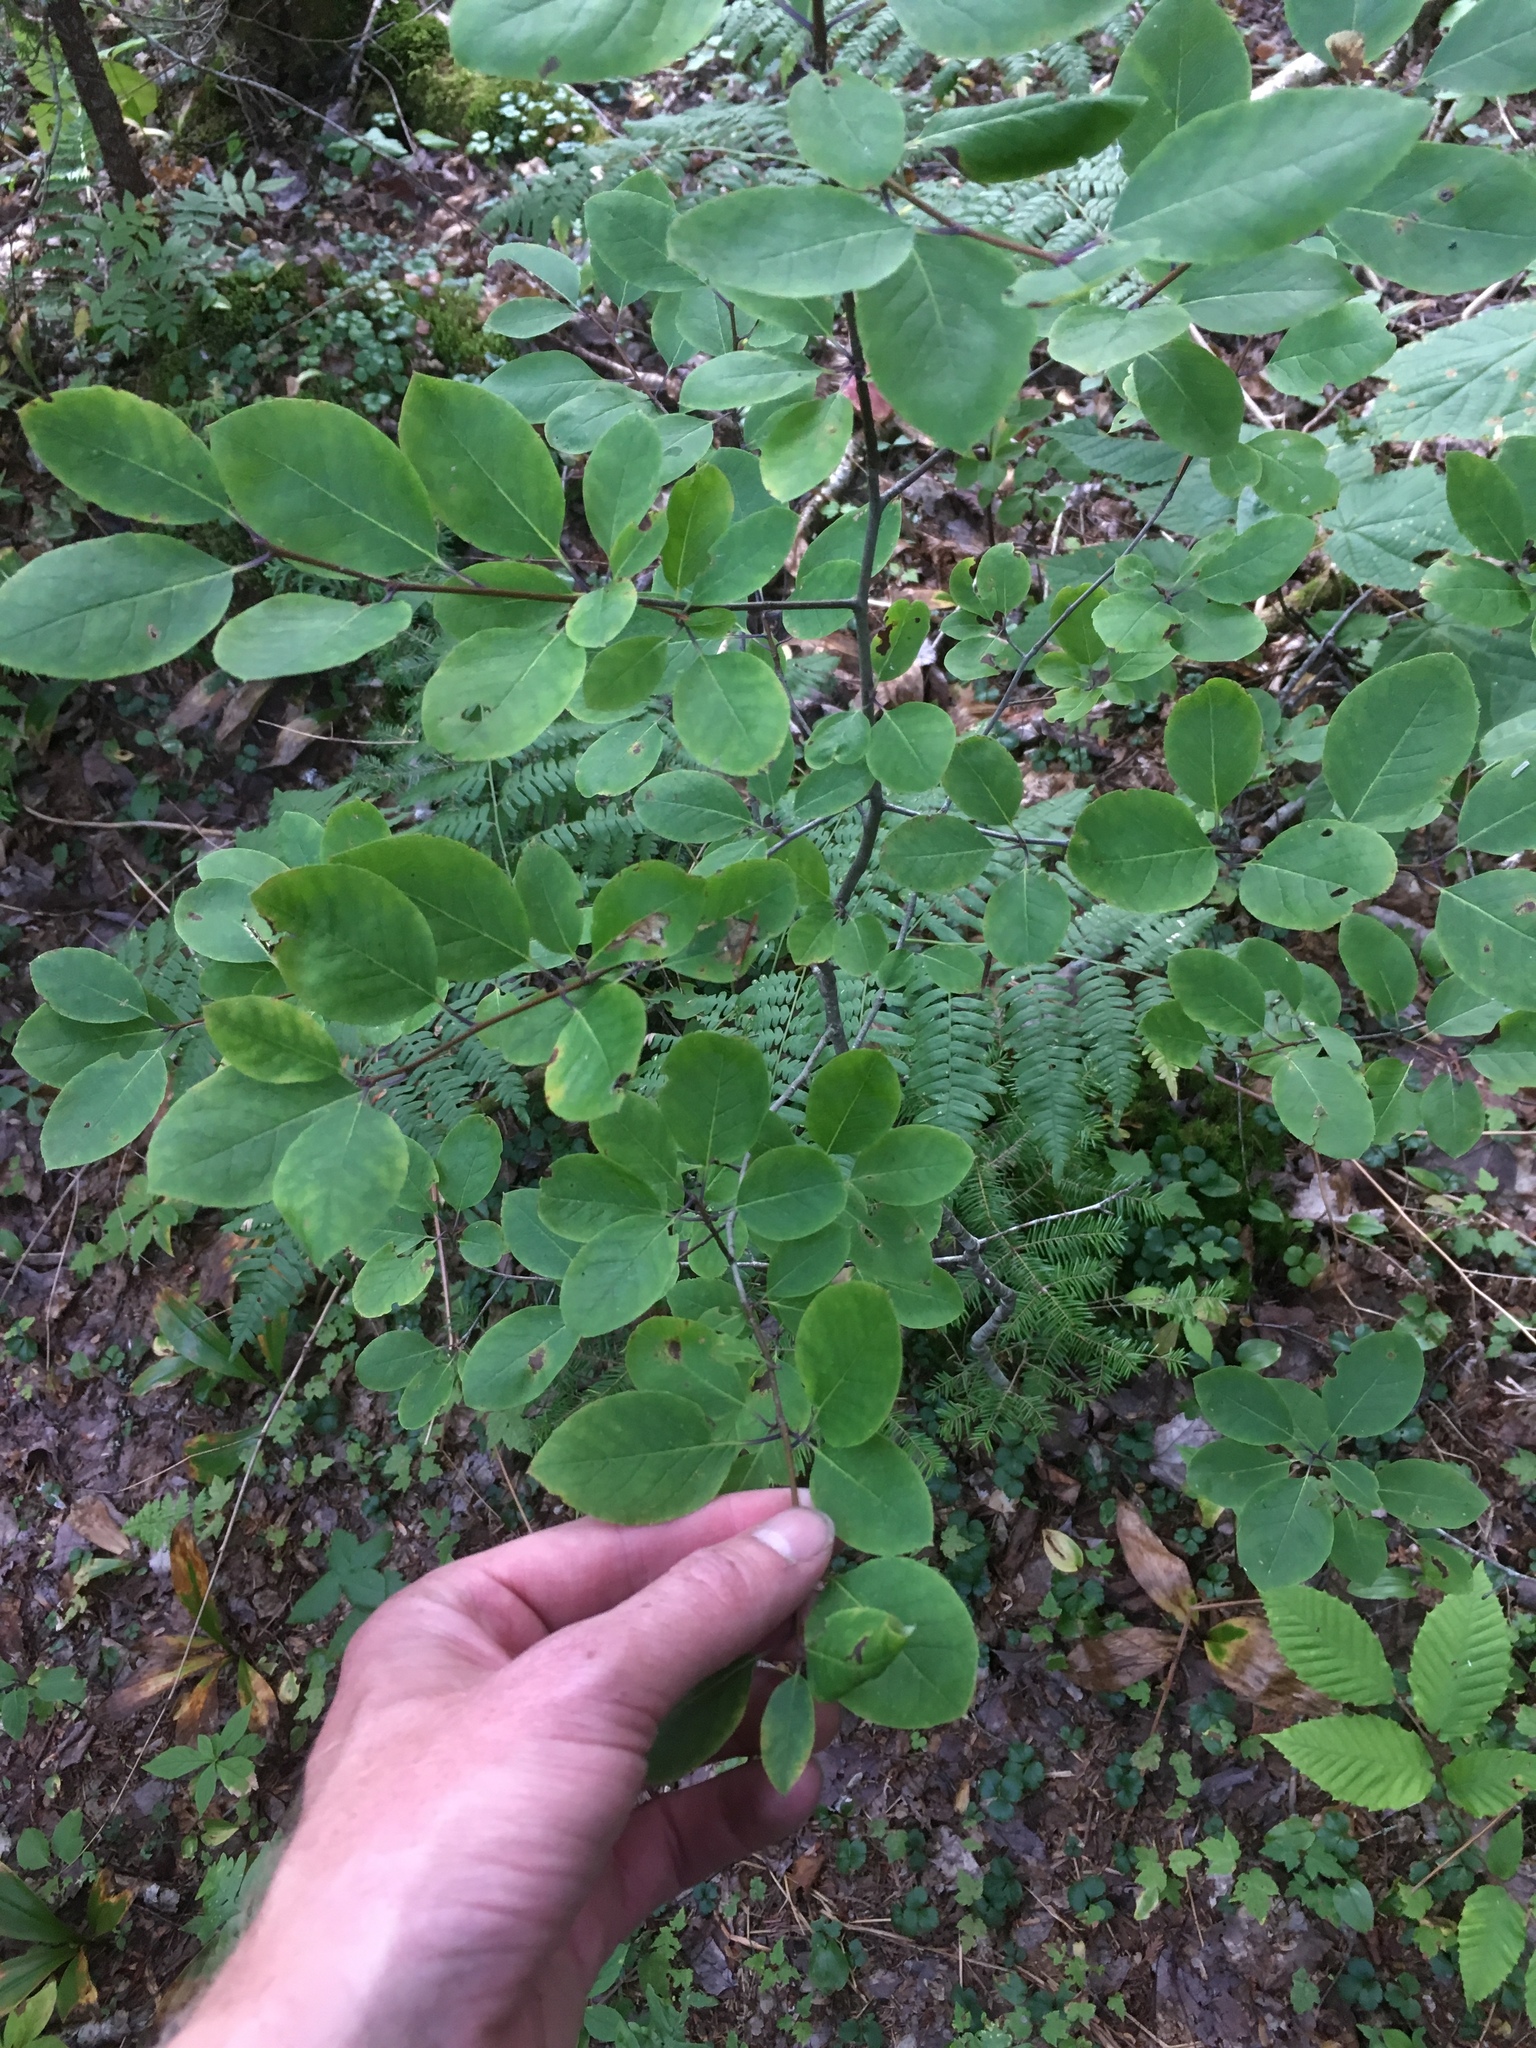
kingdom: Plantae
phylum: Tracheophyta
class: Magnoliopsida
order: Aquifoliales
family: Aquifoliaceae
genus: Ilex
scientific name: Ilex mucronata
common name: Catberry
